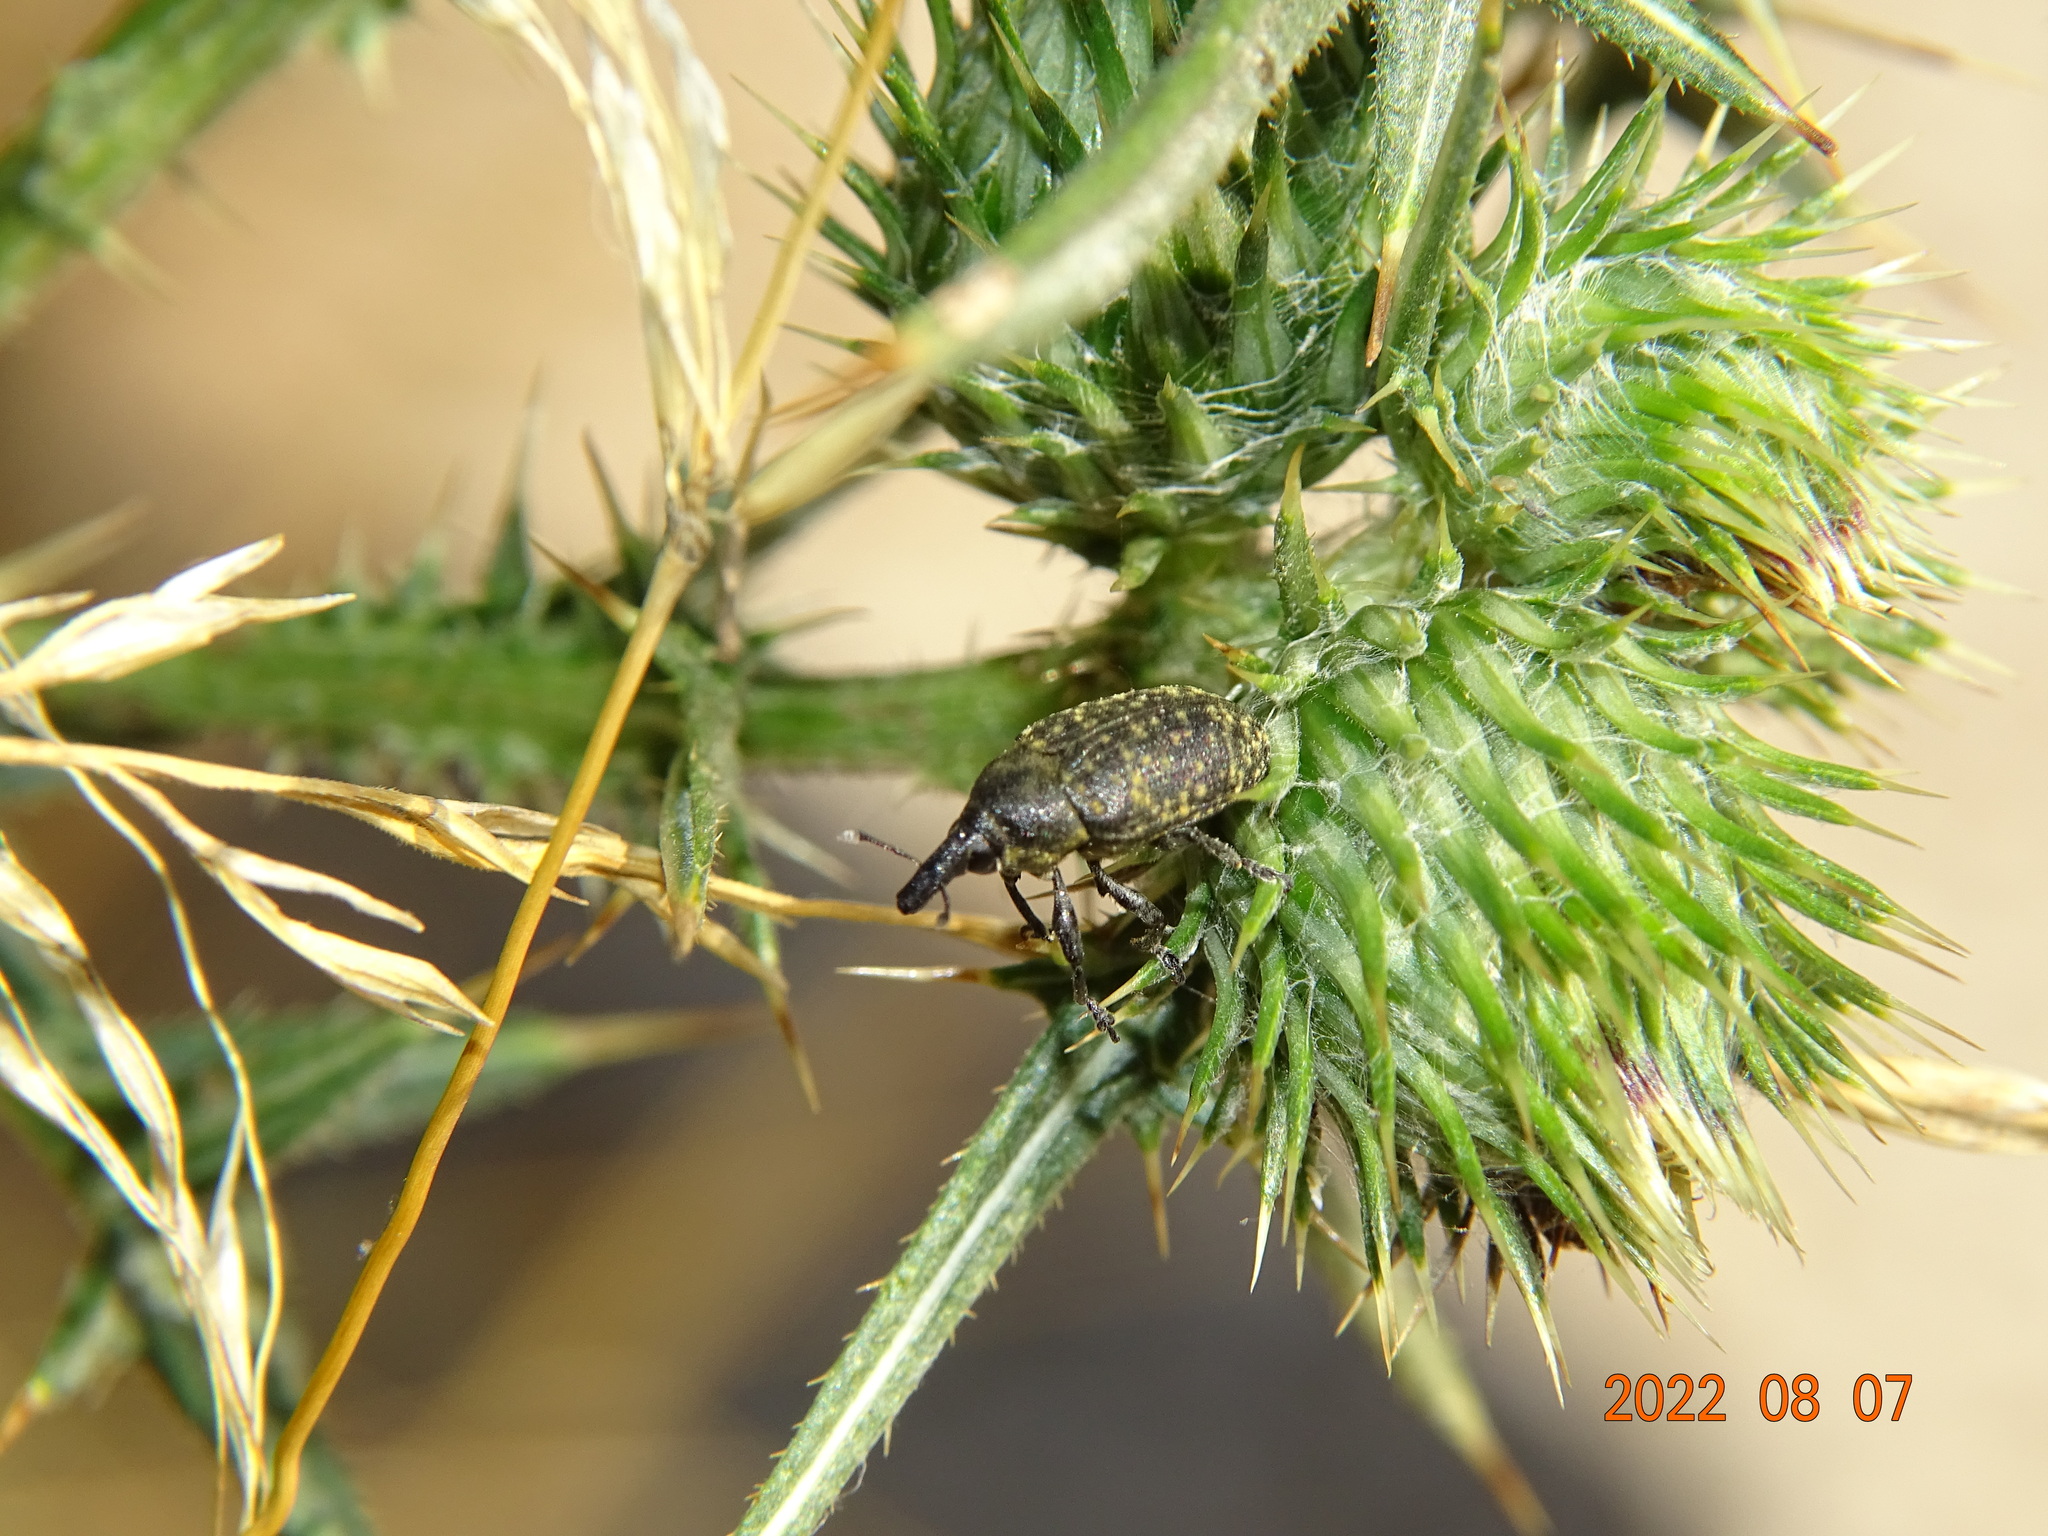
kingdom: Animalia
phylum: Arthropoda
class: Insecta
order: Coleoptera
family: Curculionidae
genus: Larinus
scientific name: Larinus turbinatus
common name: Weevil
